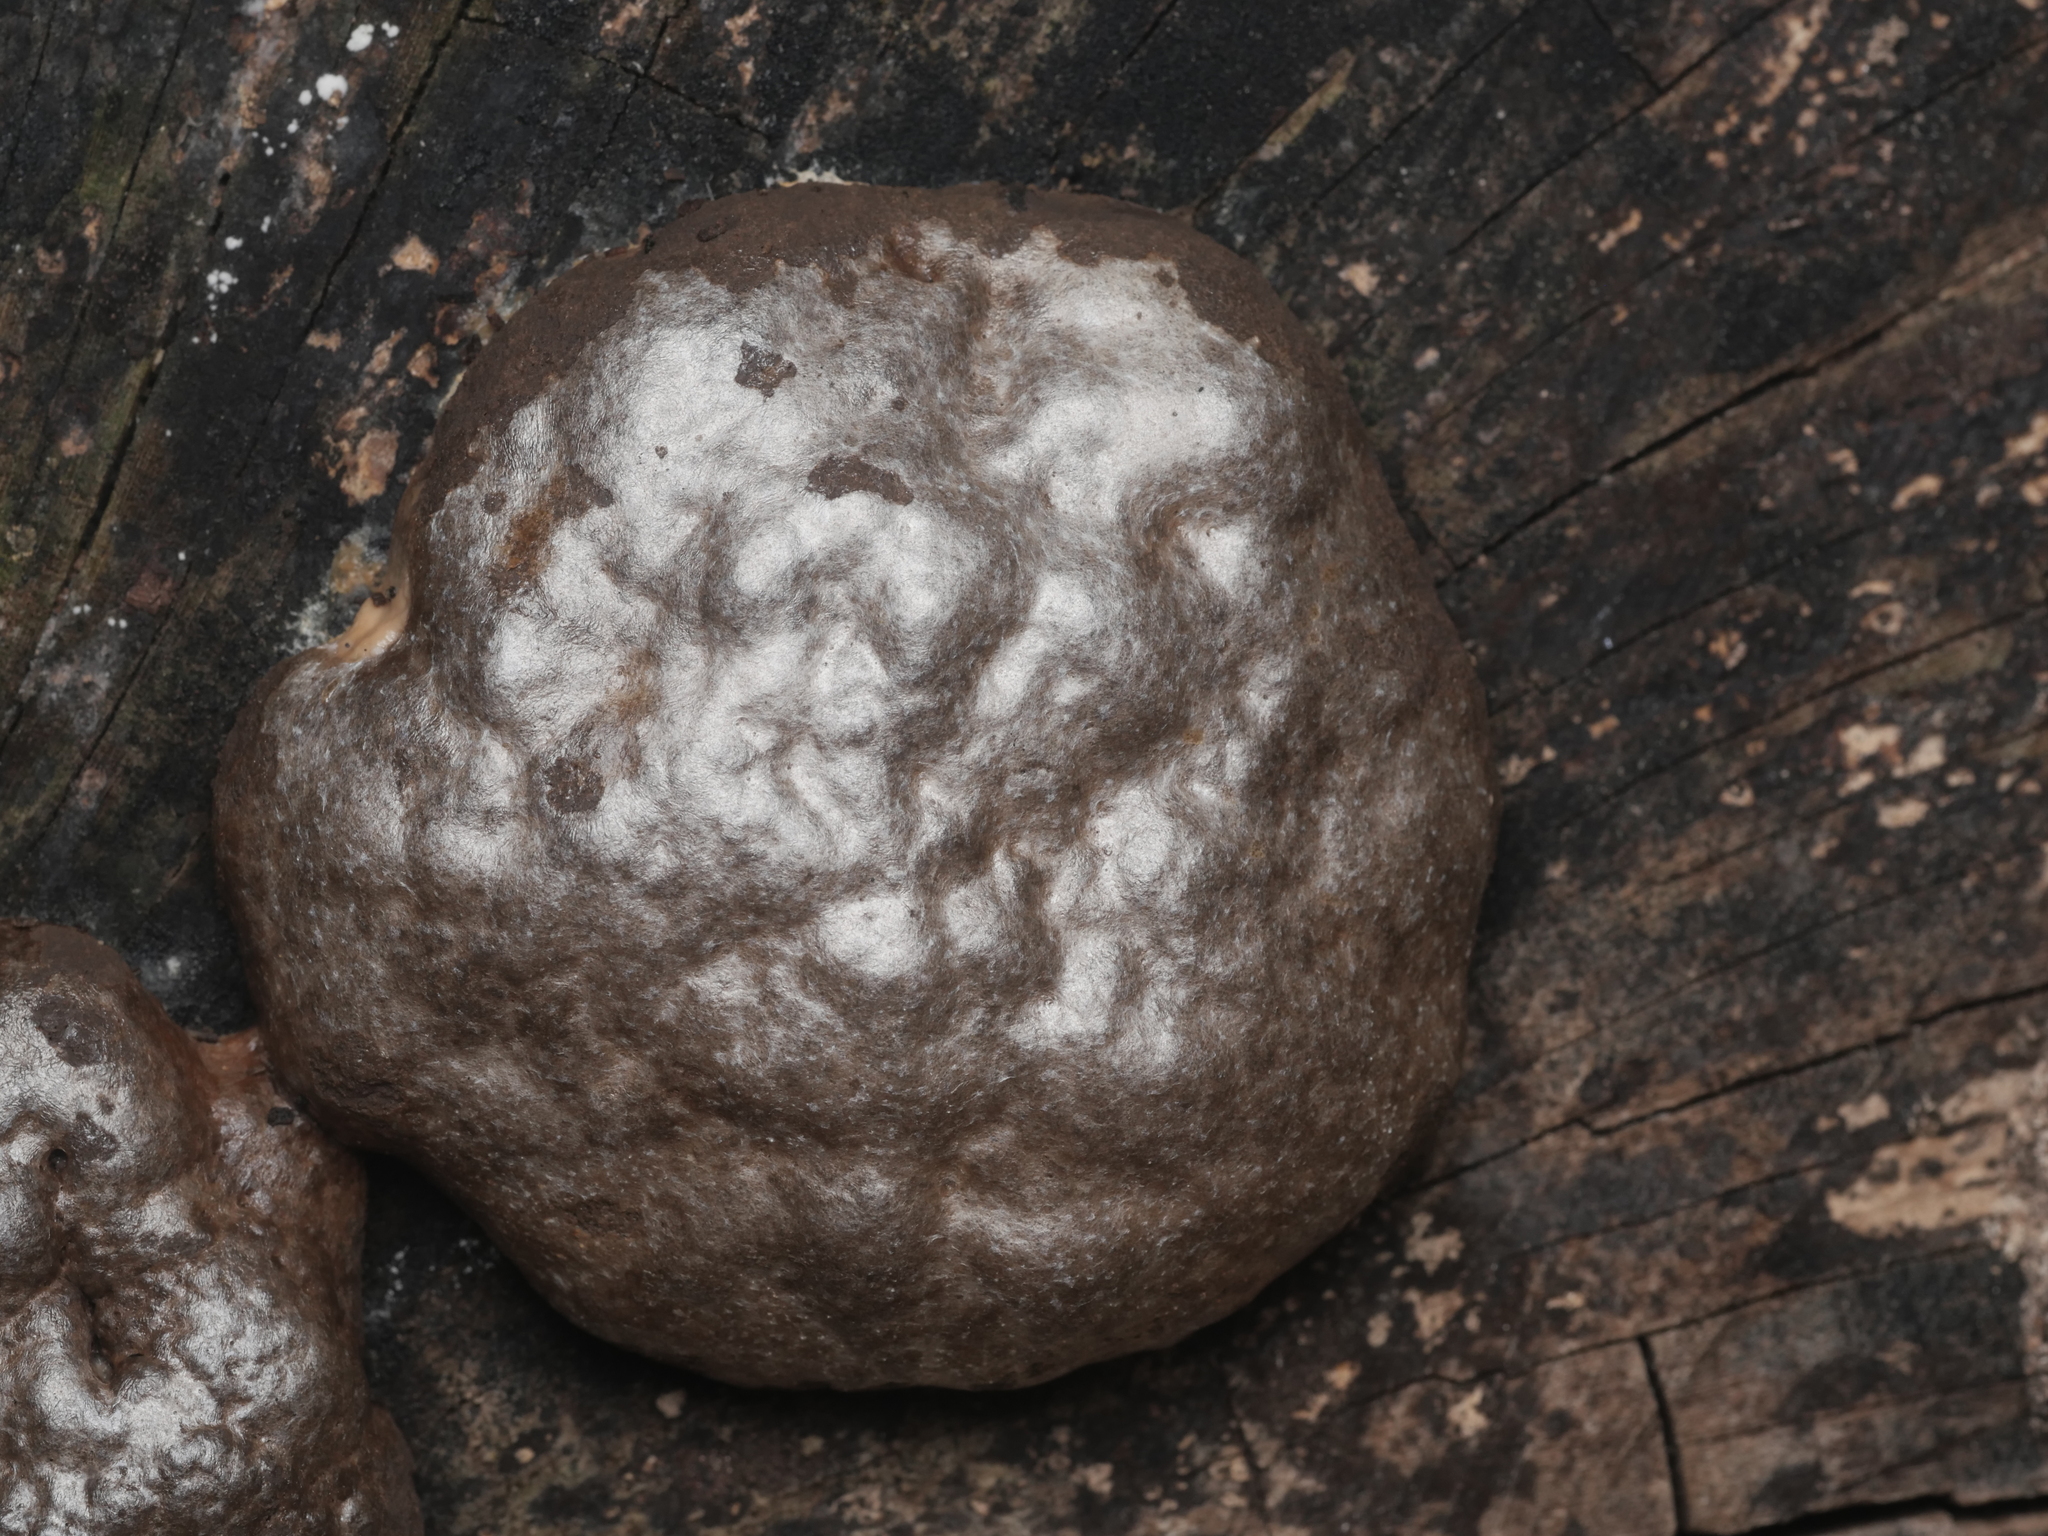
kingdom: Protozoa
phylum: Mycetozoa
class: Myxomycetes
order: Cribrariales
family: Tubiferaceae
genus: Reticularia
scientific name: Reticularia lycoperdon
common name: False puffball
